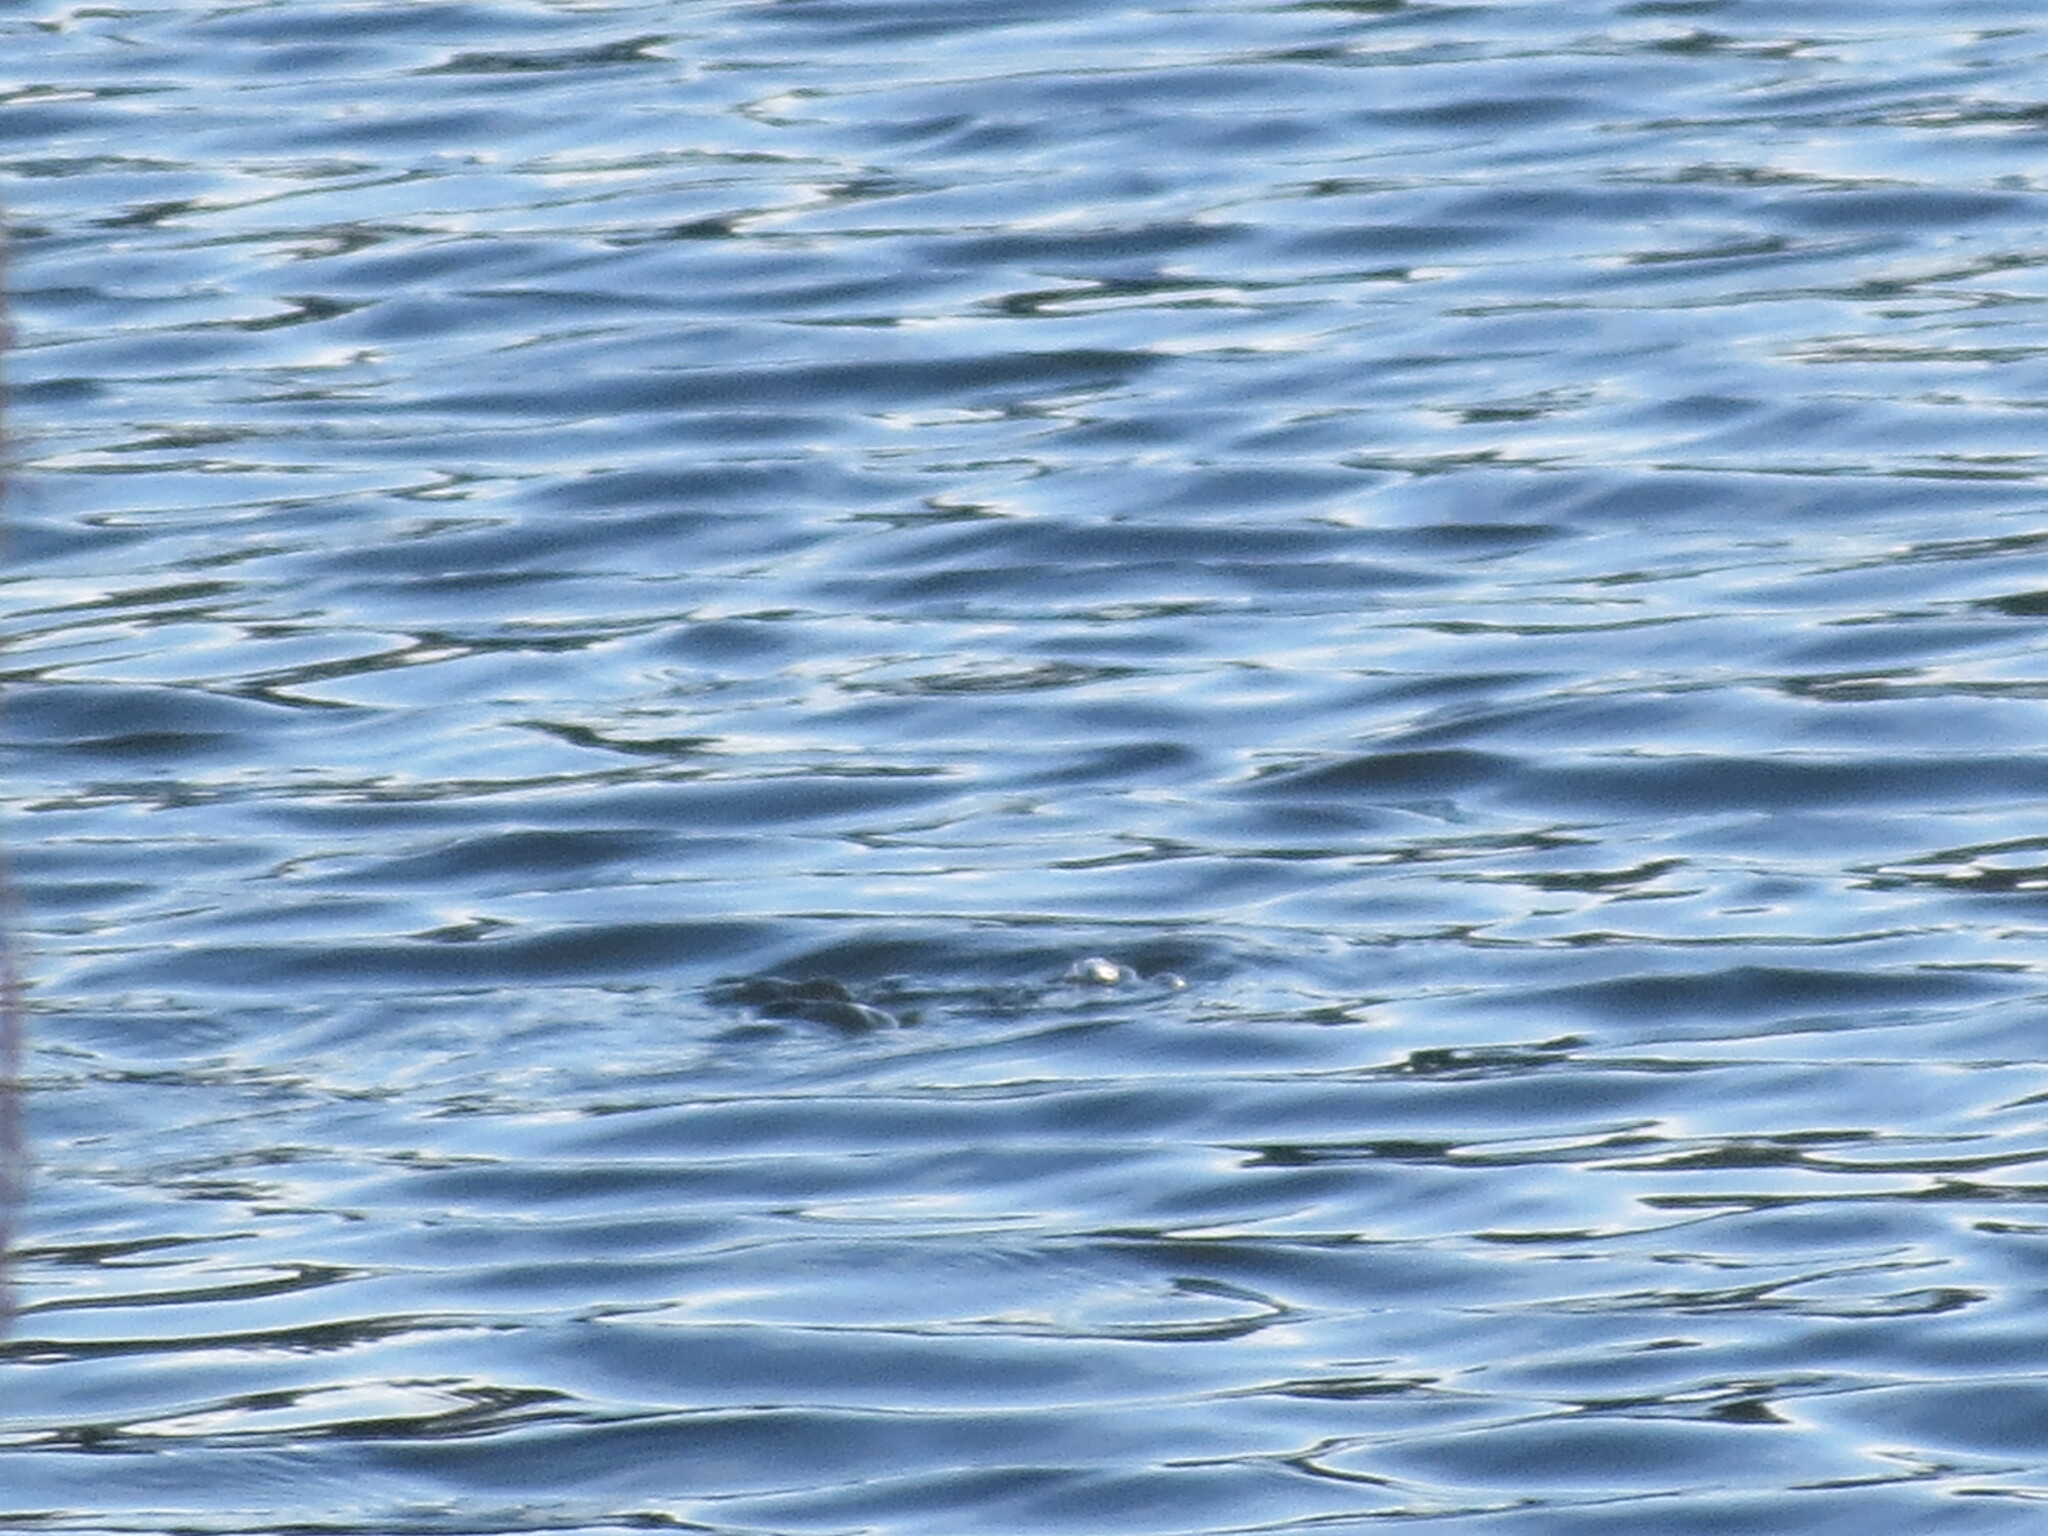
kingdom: Animalia
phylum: Chordata
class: Aves
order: Podicipediformes
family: Podicipedidae
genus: Podilymbus
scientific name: Podilymbus podiceps
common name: Pied-billed grebe
